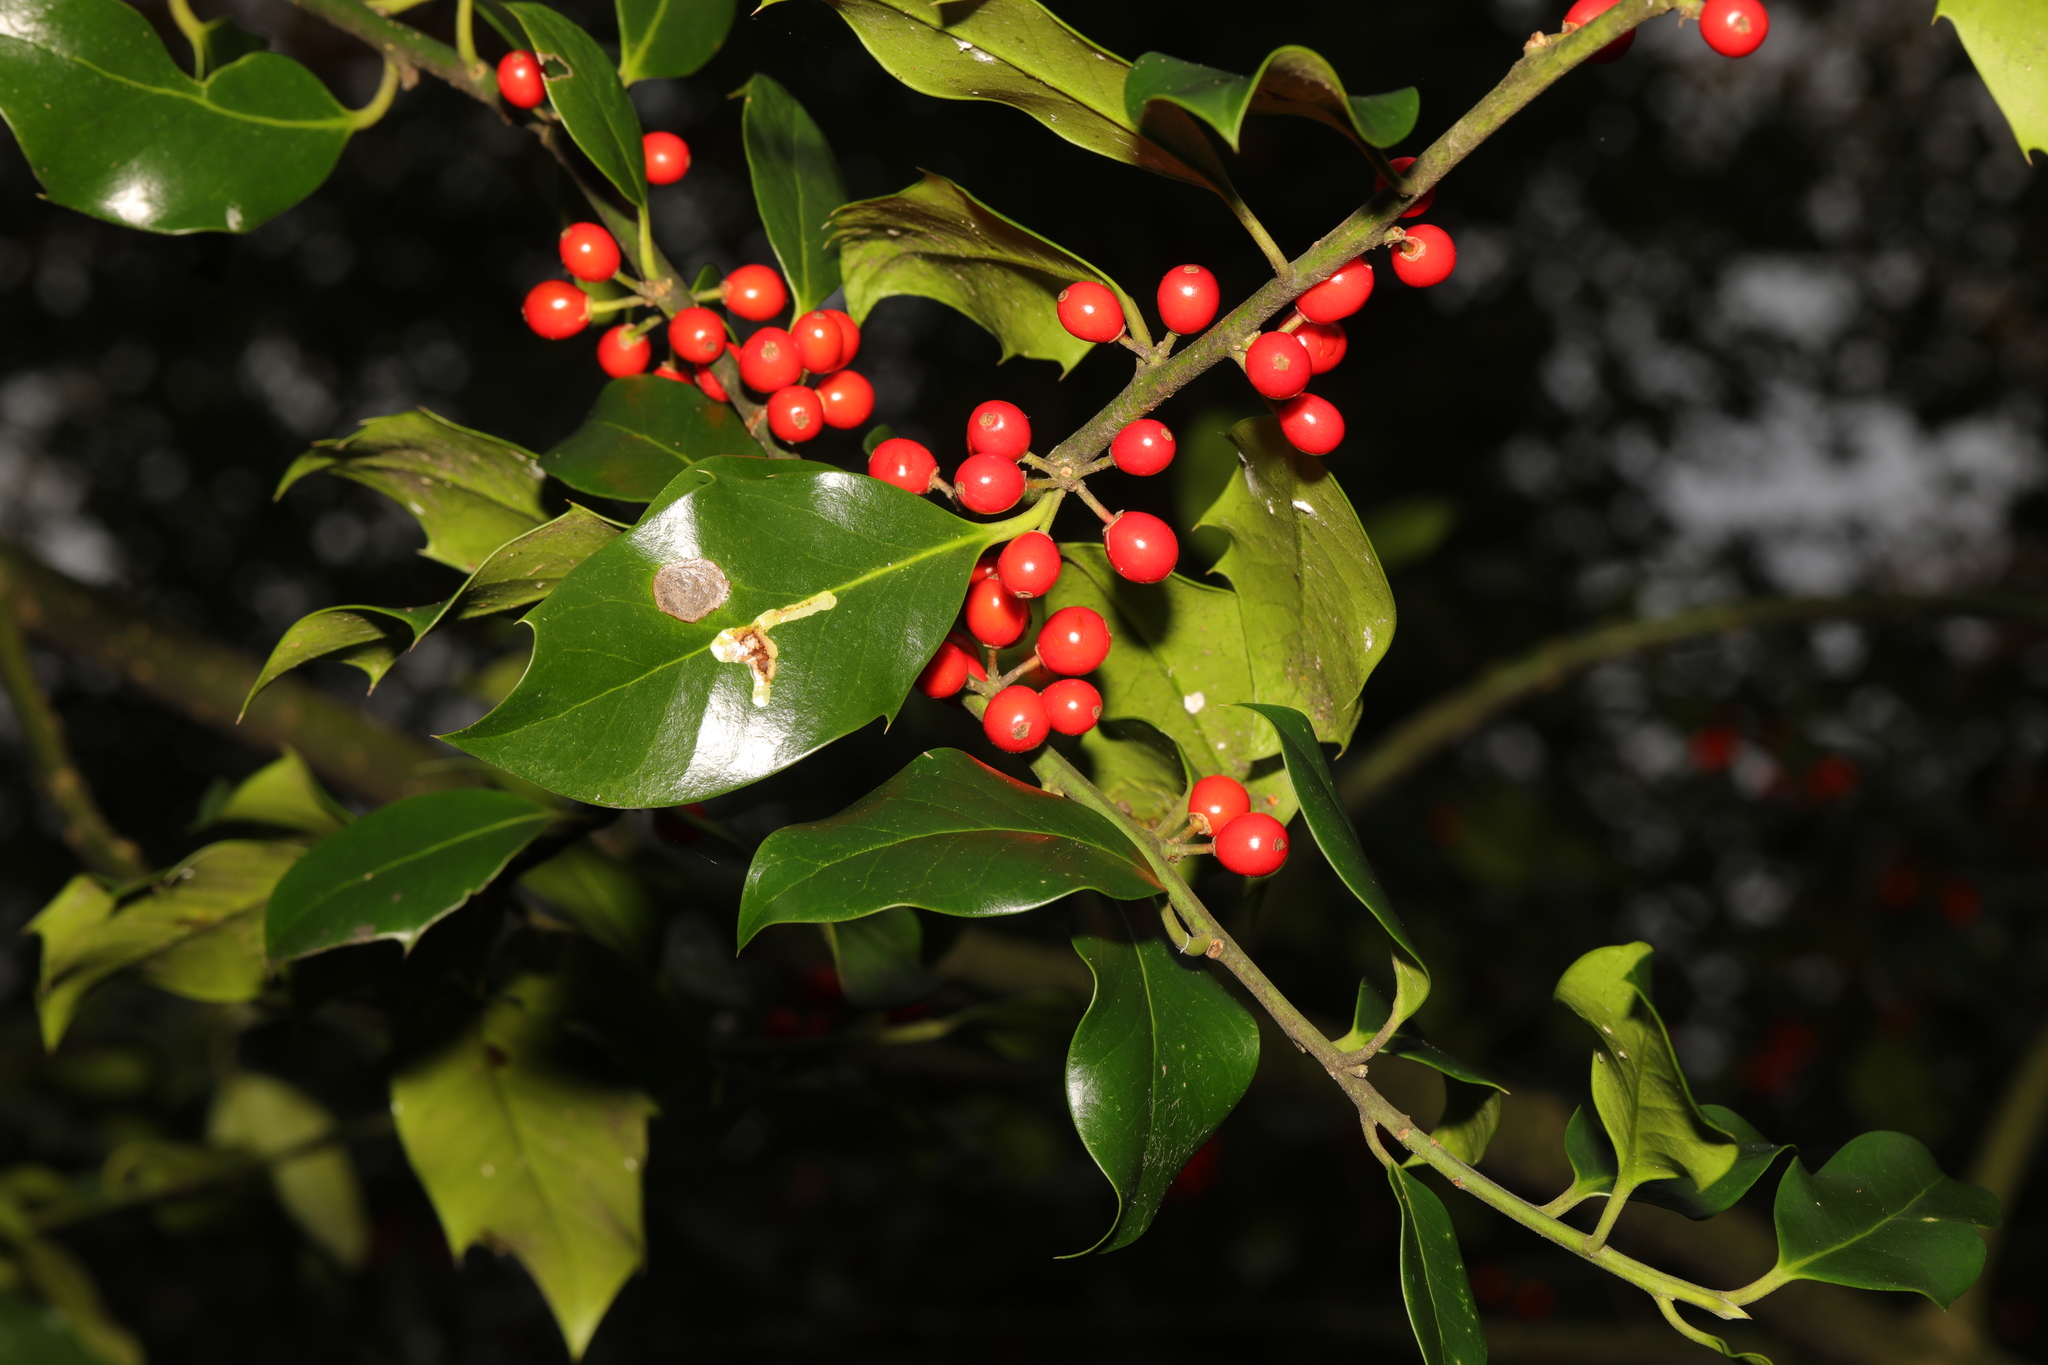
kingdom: Plantae
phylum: Tracheophyta
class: Magnoliopsida
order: Aquifoliales
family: Aquifoliaceae
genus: Ilex
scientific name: Ilex aquifolium
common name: English holly
